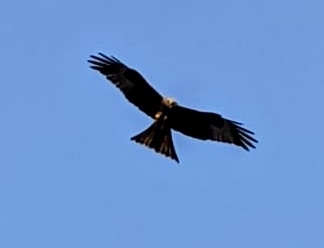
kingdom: Animalia
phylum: Chordata
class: Aves
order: Accipitriformes
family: Accipitridae
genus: Milvus
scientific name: Milvus milvus
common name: Red kite
